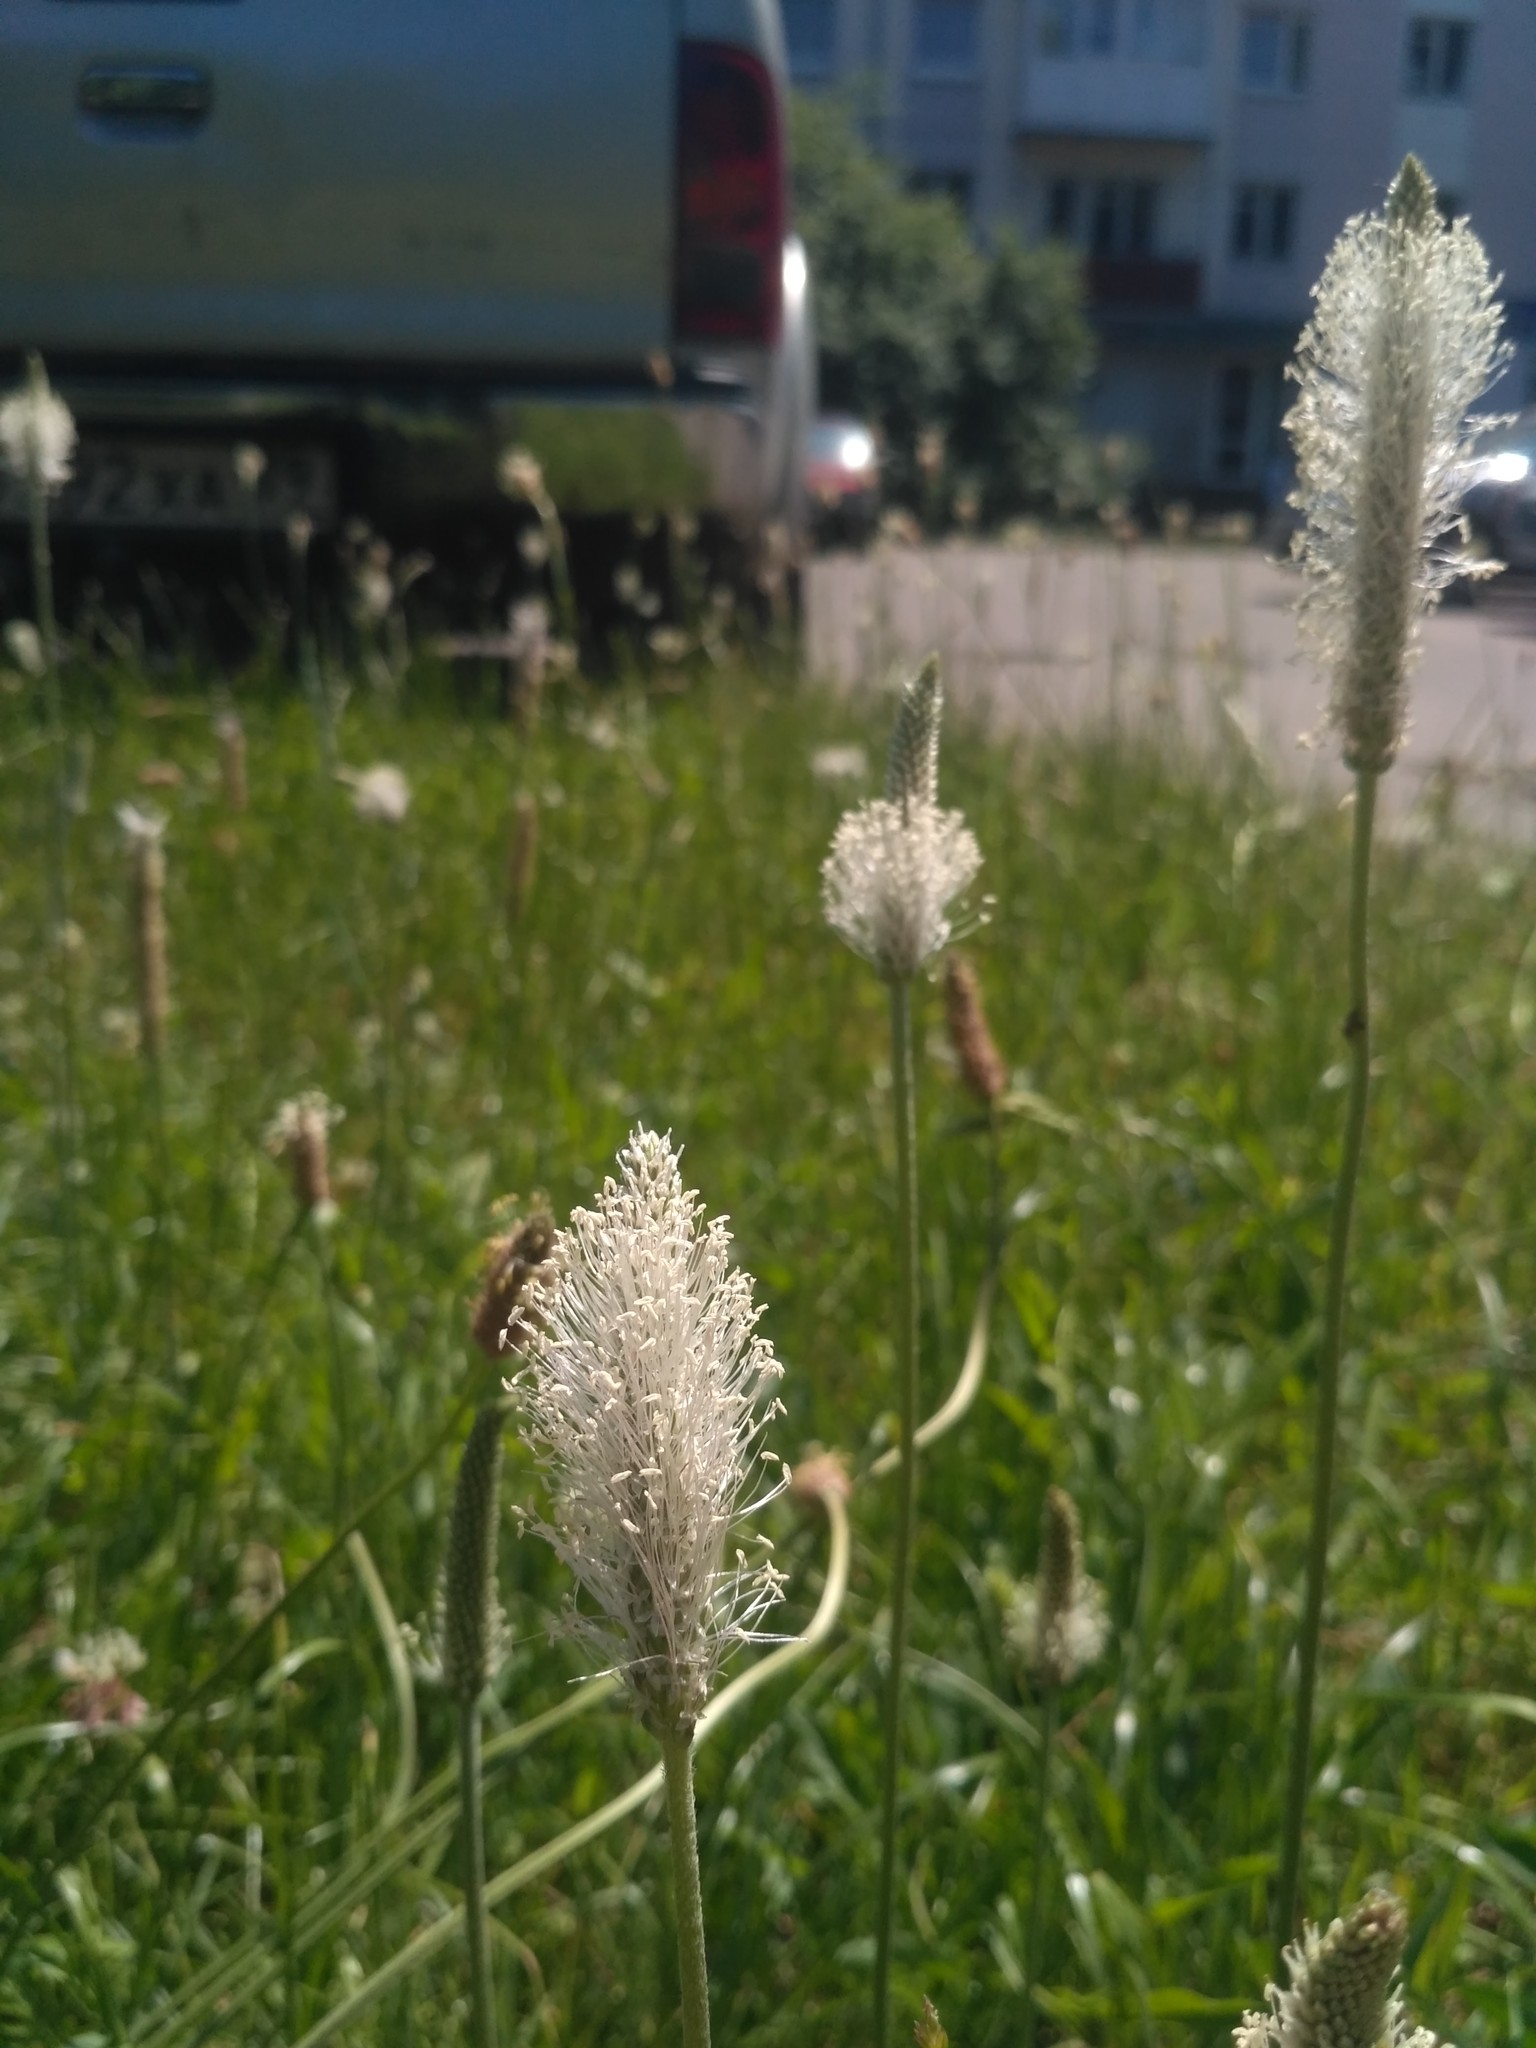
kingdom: Plantae
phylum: Tracheophyta
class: Magnoliopsida
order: Lamiales
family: Plantaginaceae
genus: Plantago
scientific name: Plantago media
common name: Hoary plantain
